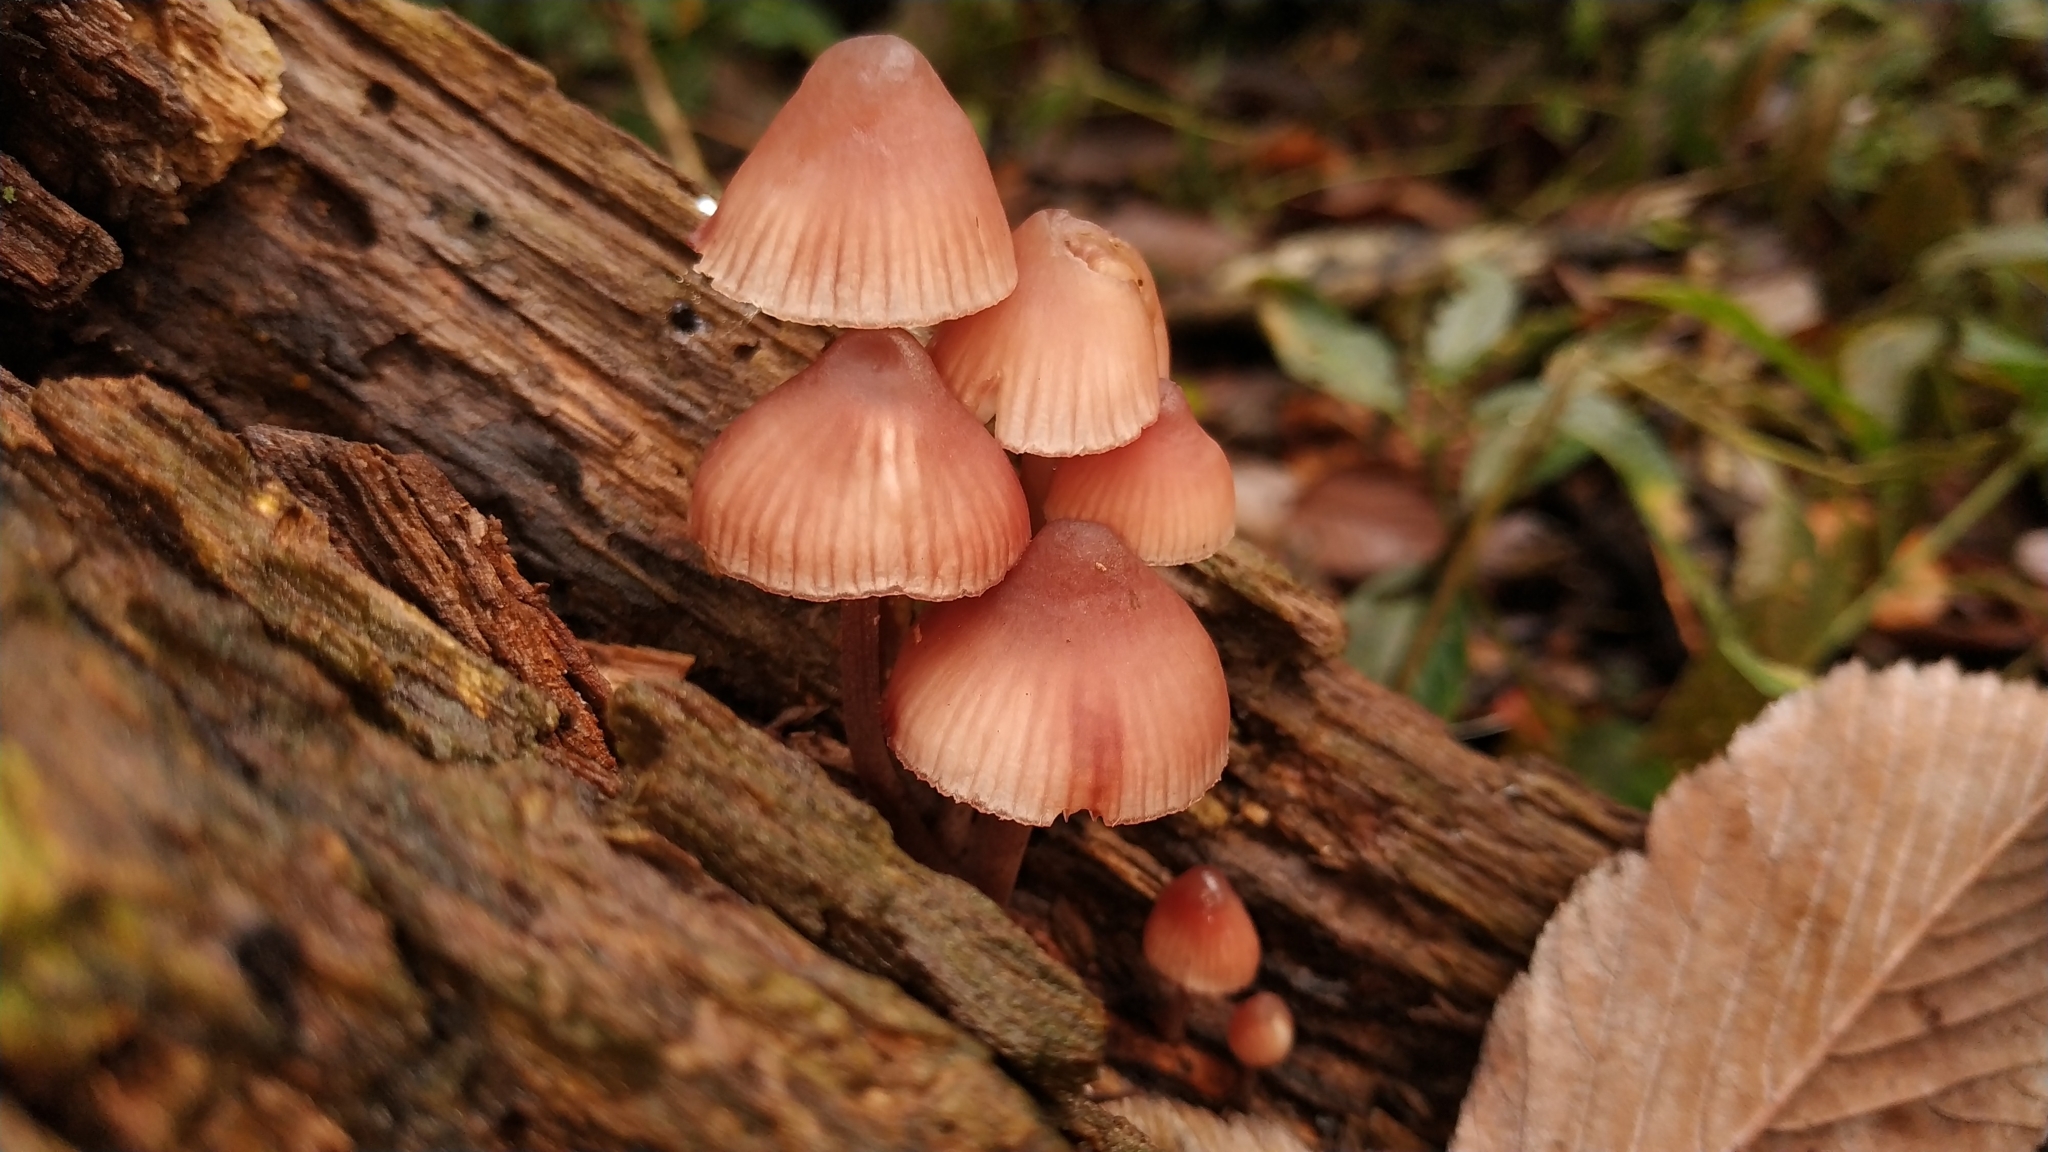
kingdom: Fungi
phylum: Basidiomycota
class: Agaricomycetes
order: Agaricales
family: Mycenaceae
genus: Mycena
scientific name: Mycena haematopus
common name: Burgundydrop bonnet
